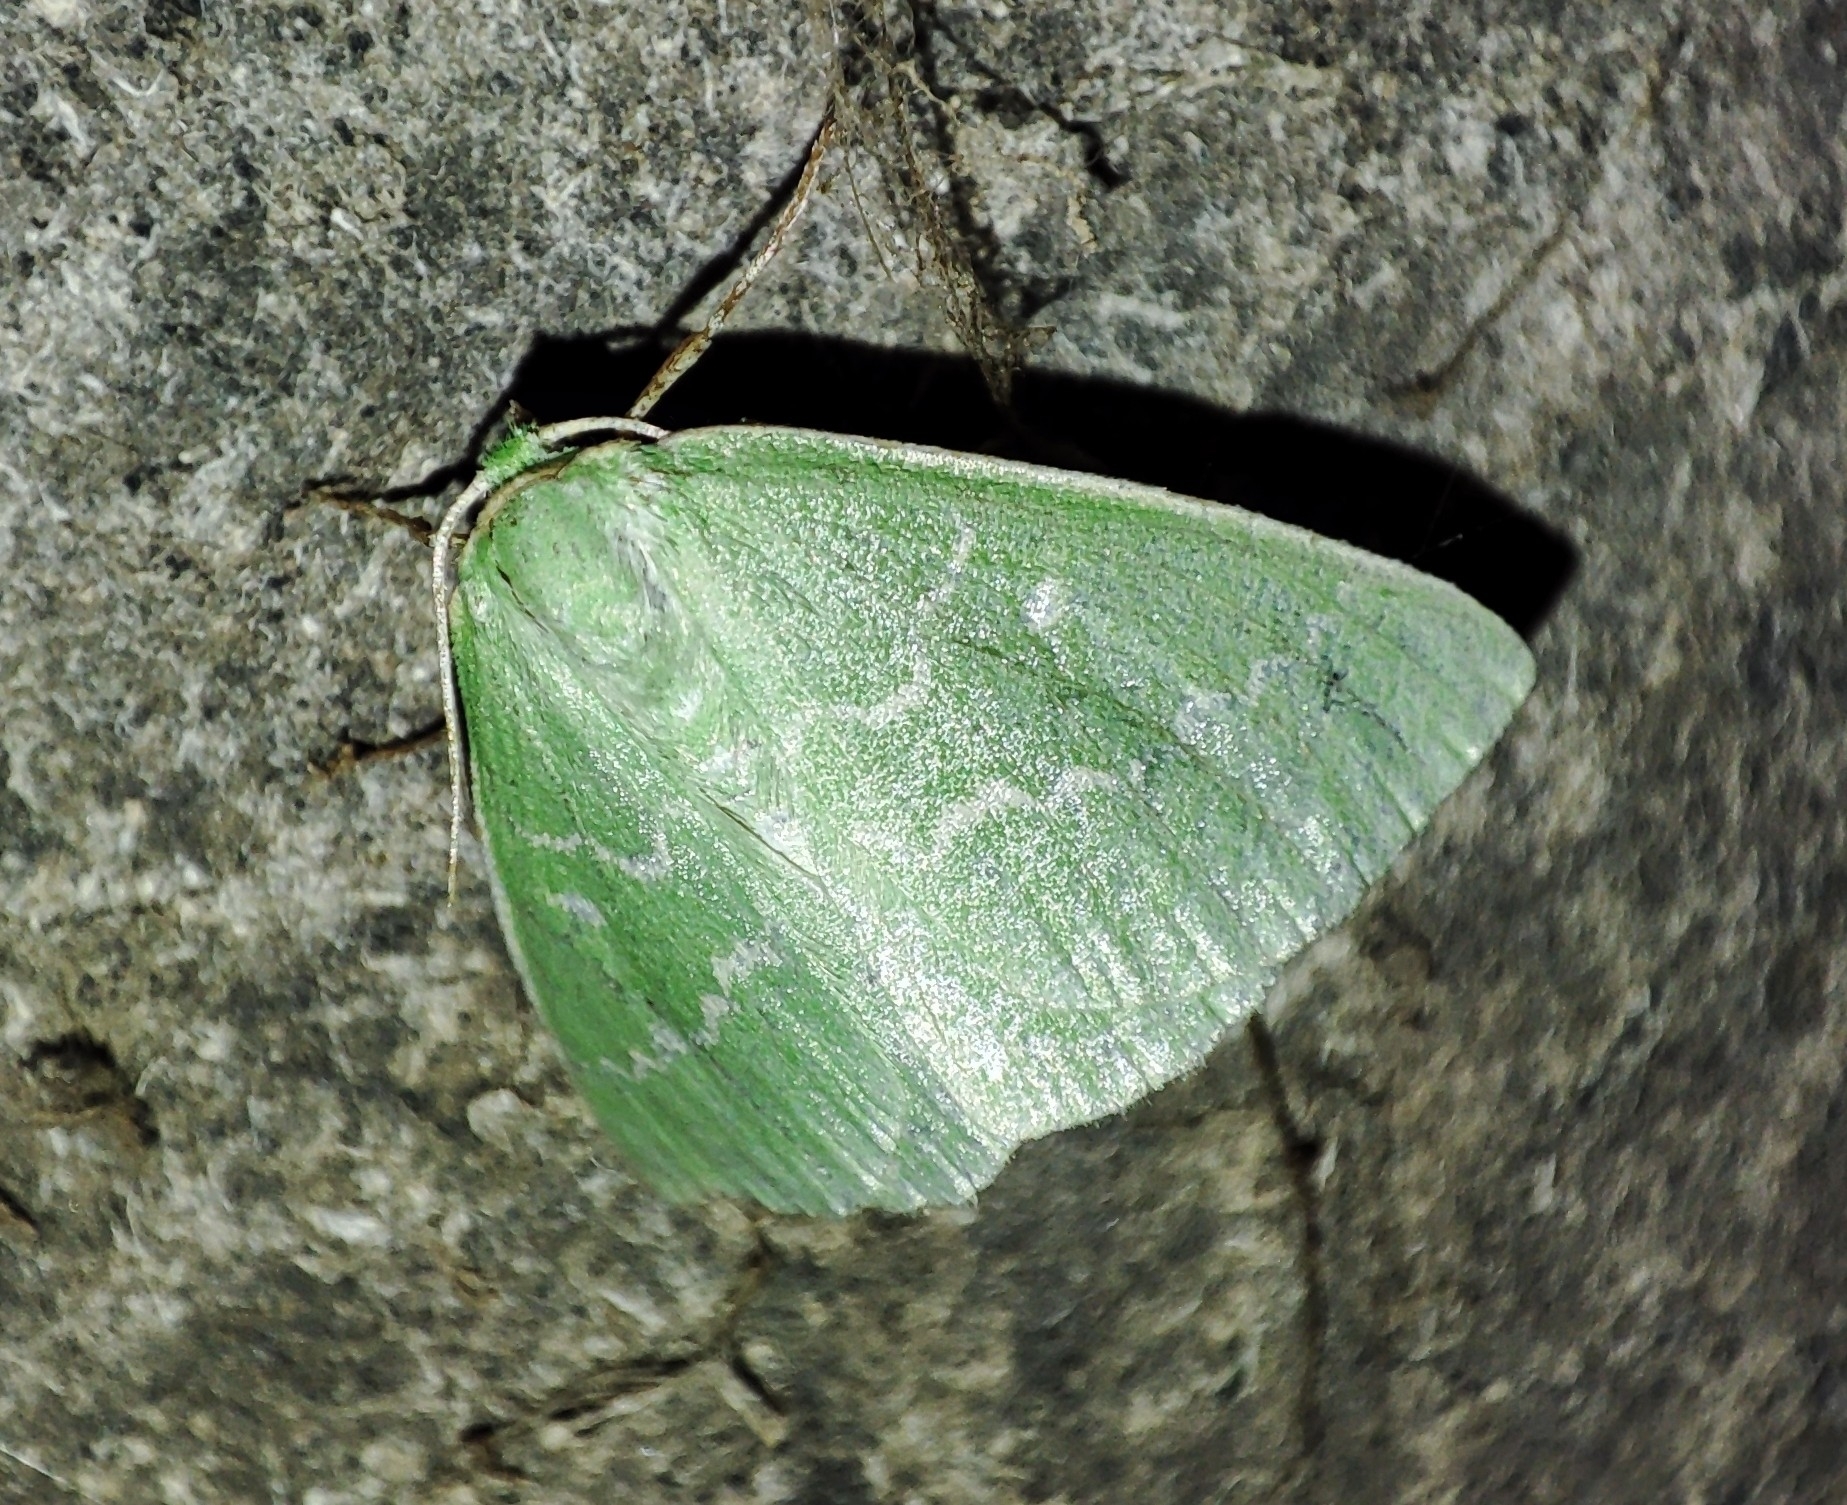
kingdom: Animalia
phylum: Arthropoda
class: Insecta
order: Lepidoptera
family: Geometridae
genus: Thetidia
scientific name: Thetidia smaragdaria
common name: Essex emerald
